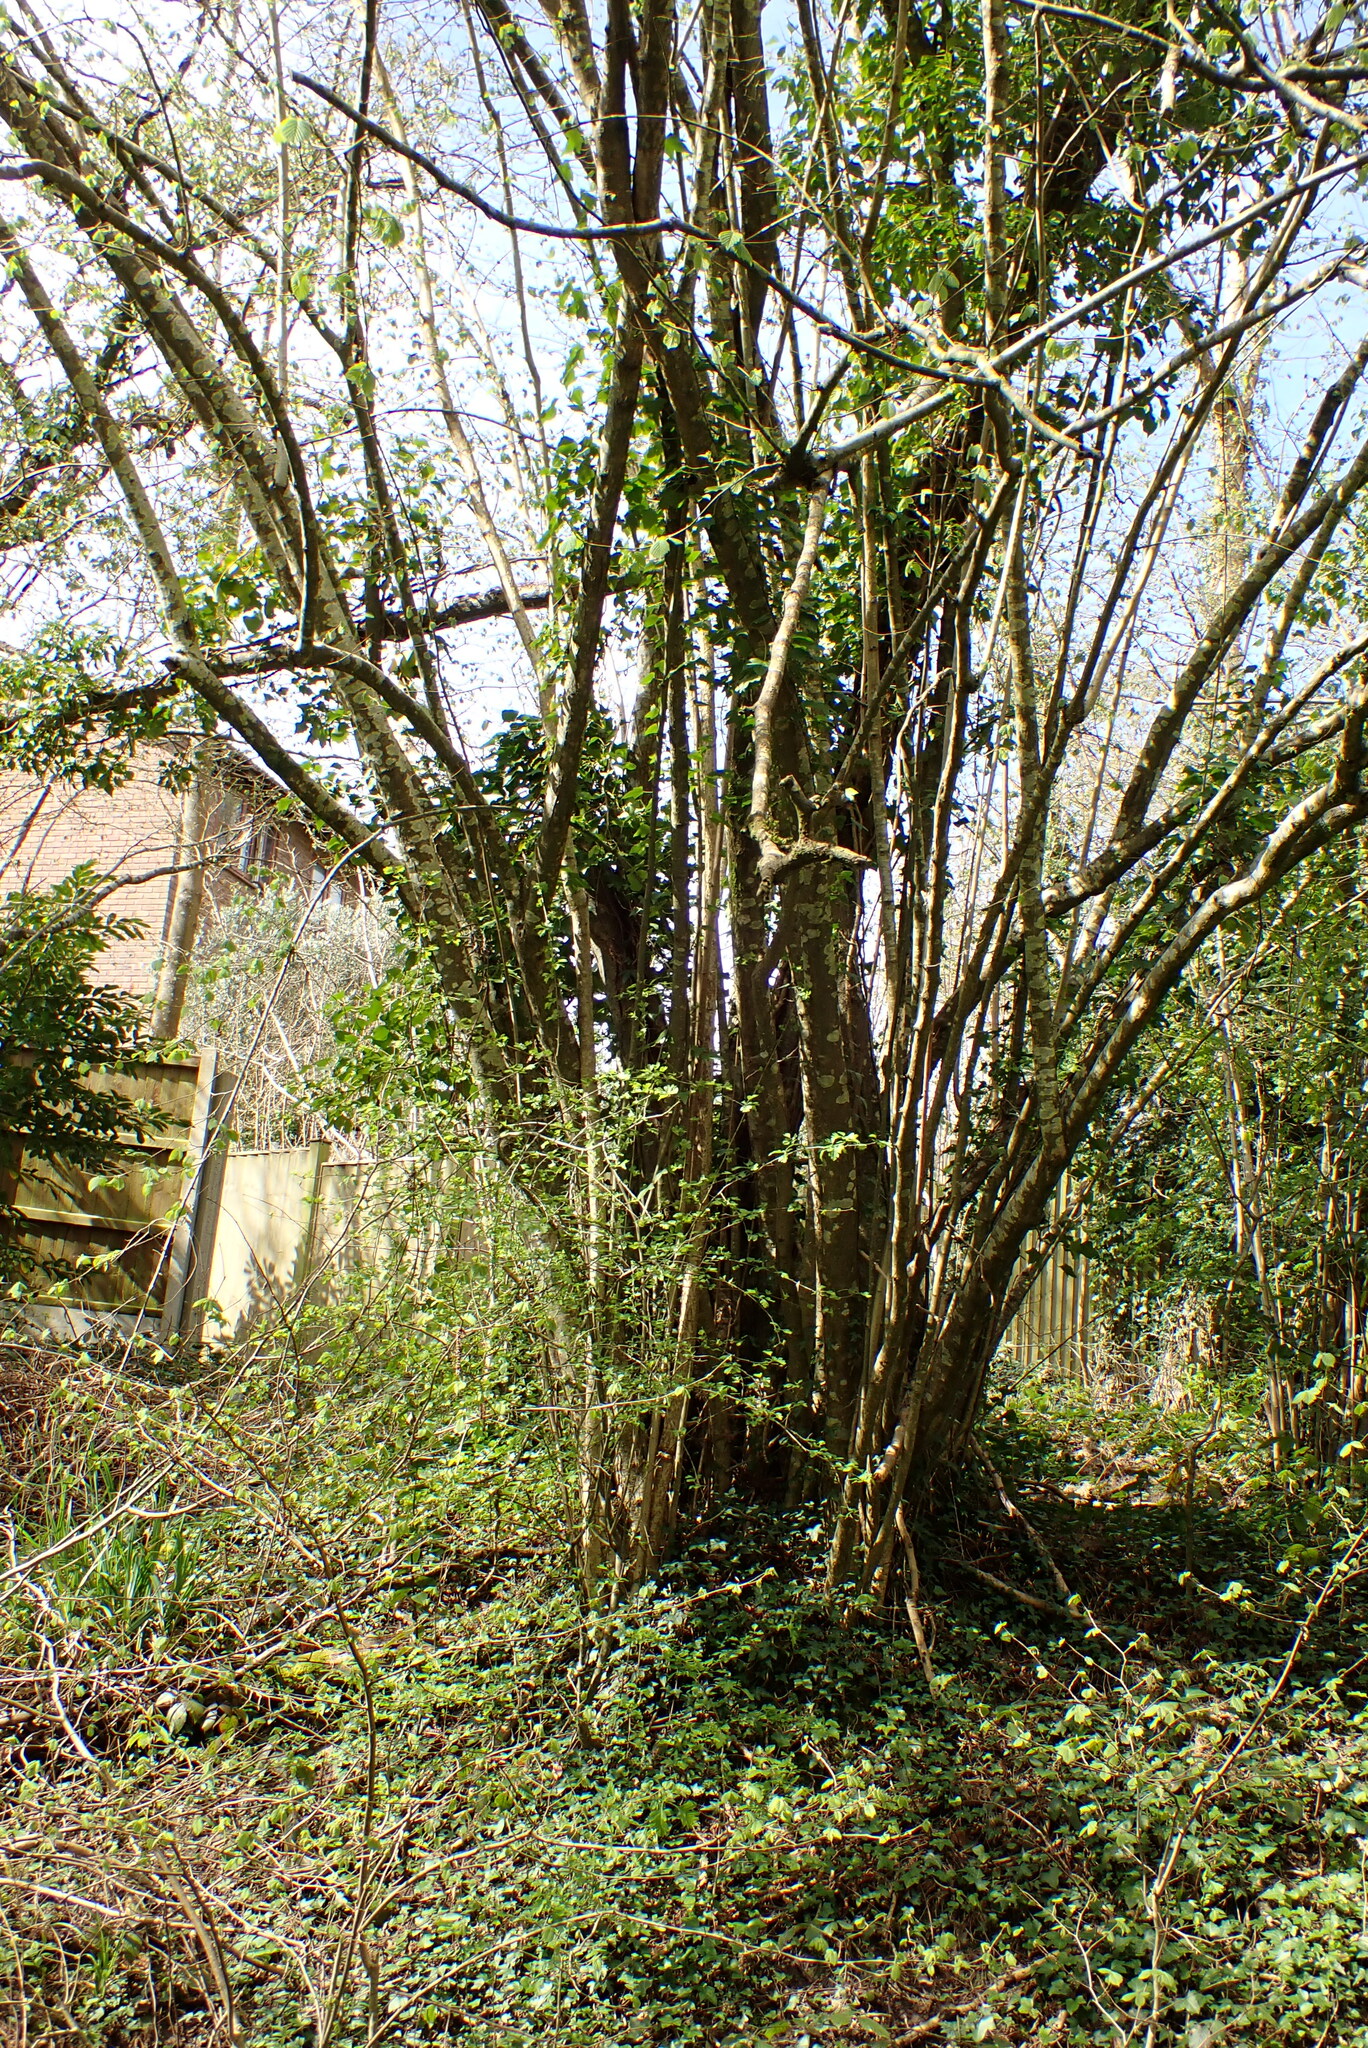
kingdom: Plantae
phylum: Tracheophyta
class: Magnoliopsida
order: Fagales
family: Betulaceae
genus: Corylus
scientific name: Corylus avellana
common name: European hazel
